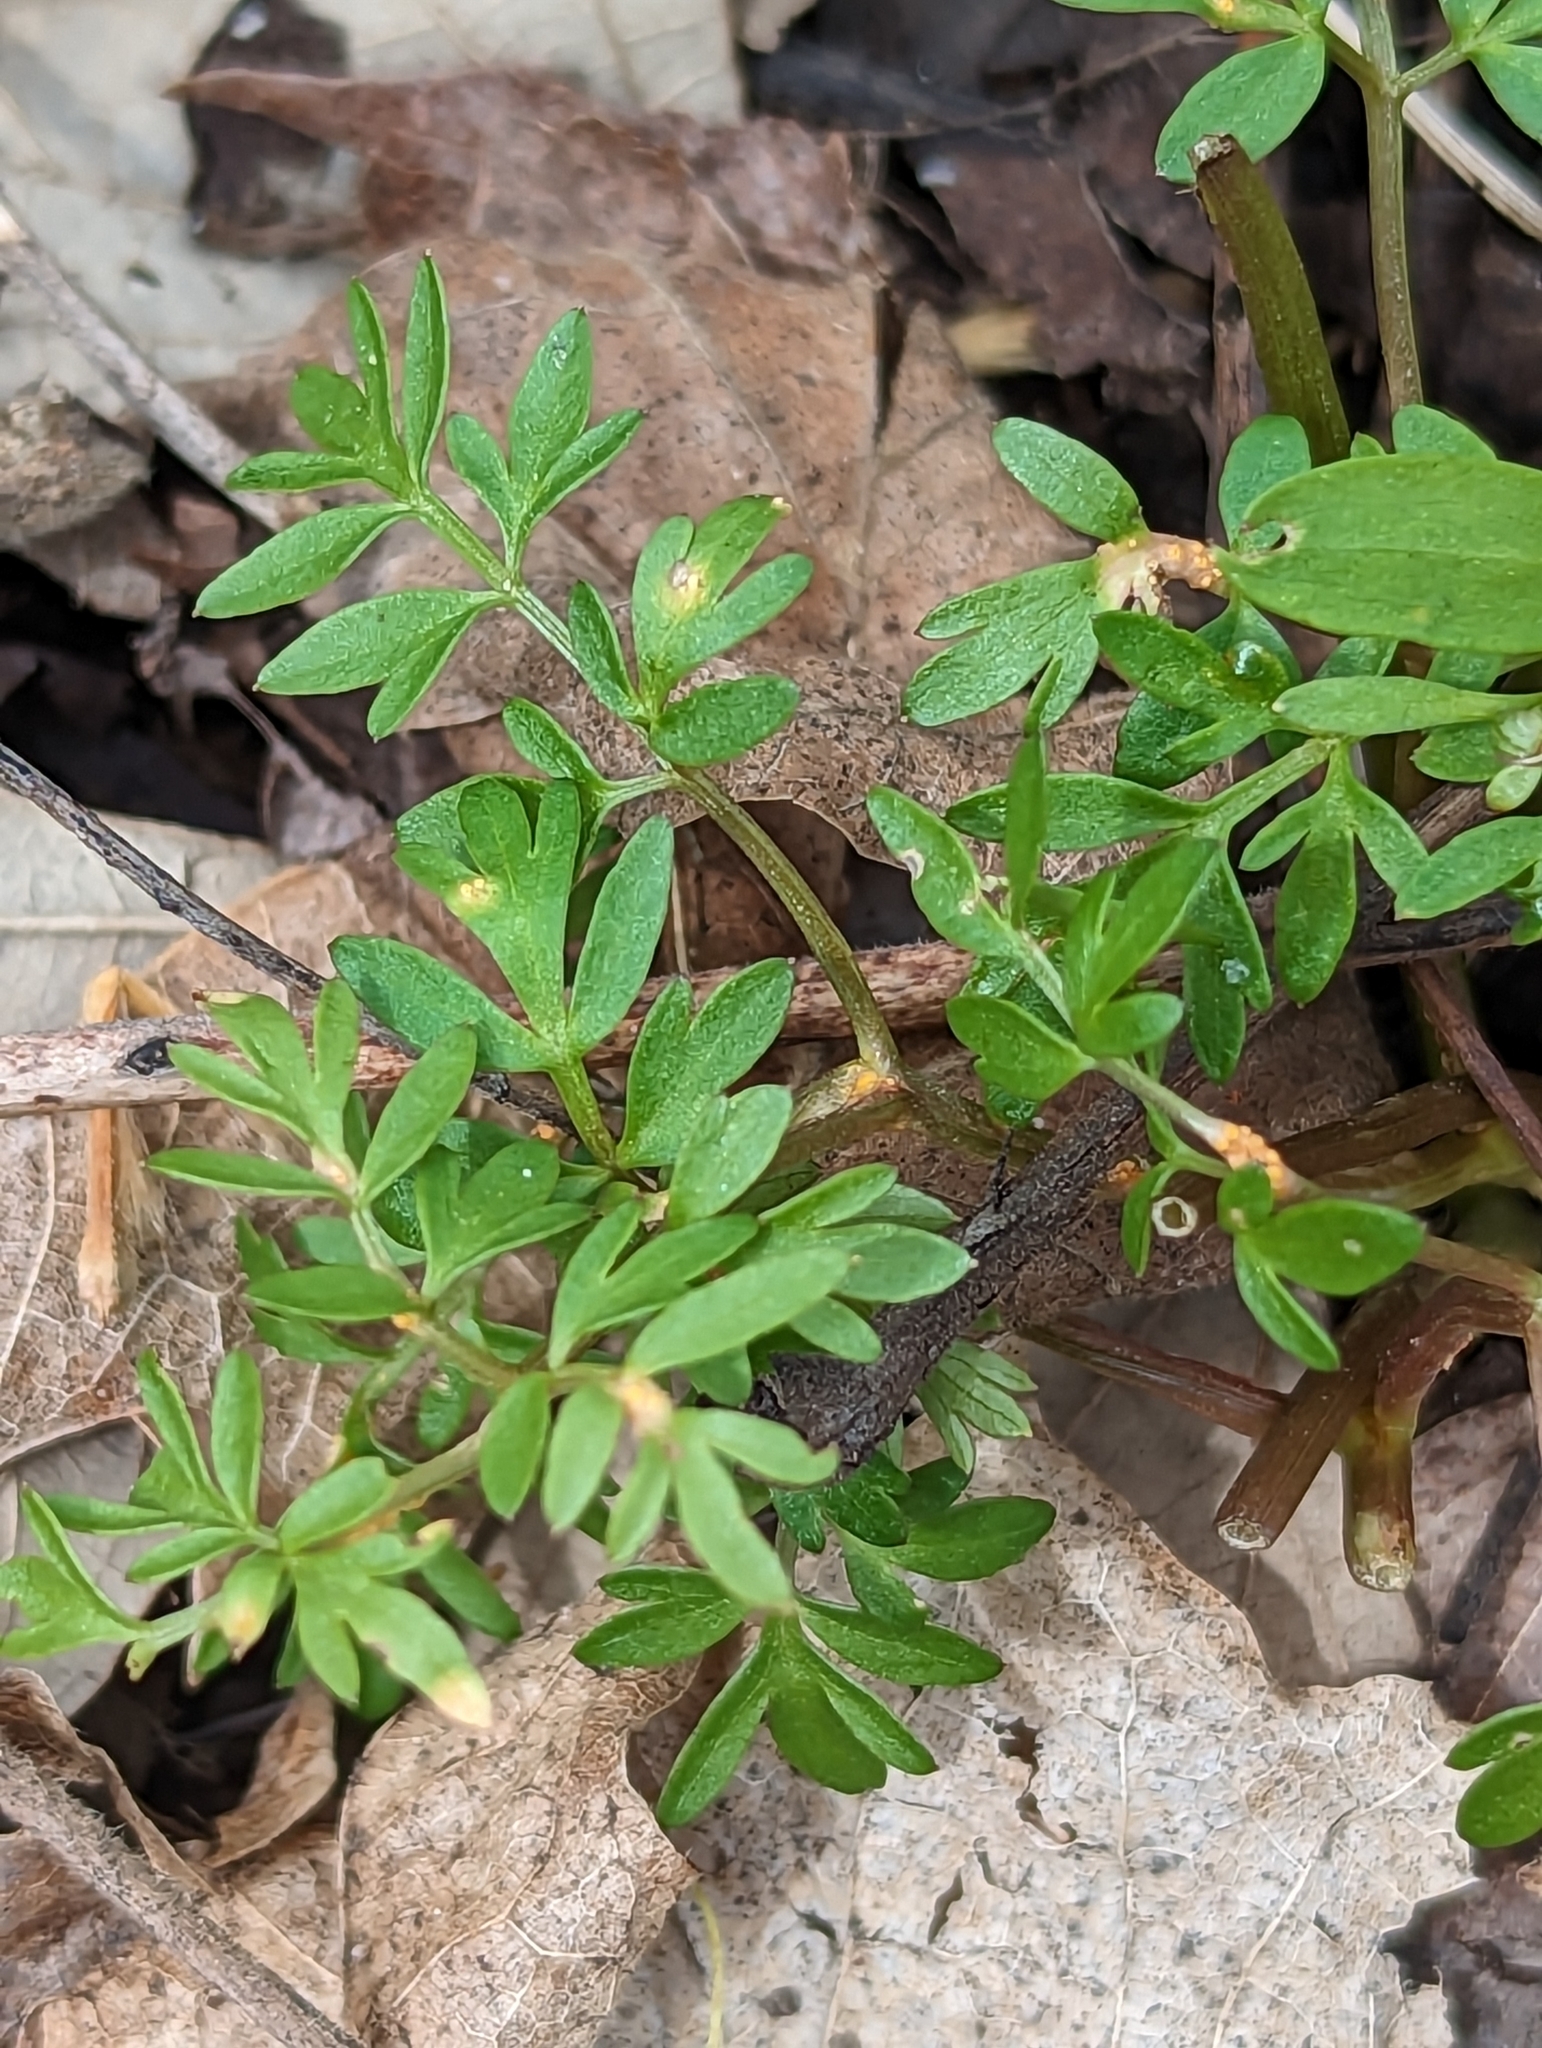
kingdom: Plantae
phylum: Tracheophyta
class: Magnoliopsida
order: Apiales
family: Apiaceae
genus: Erigenia
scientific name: Erigenia bulbosa
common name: Pepper-and-salt
